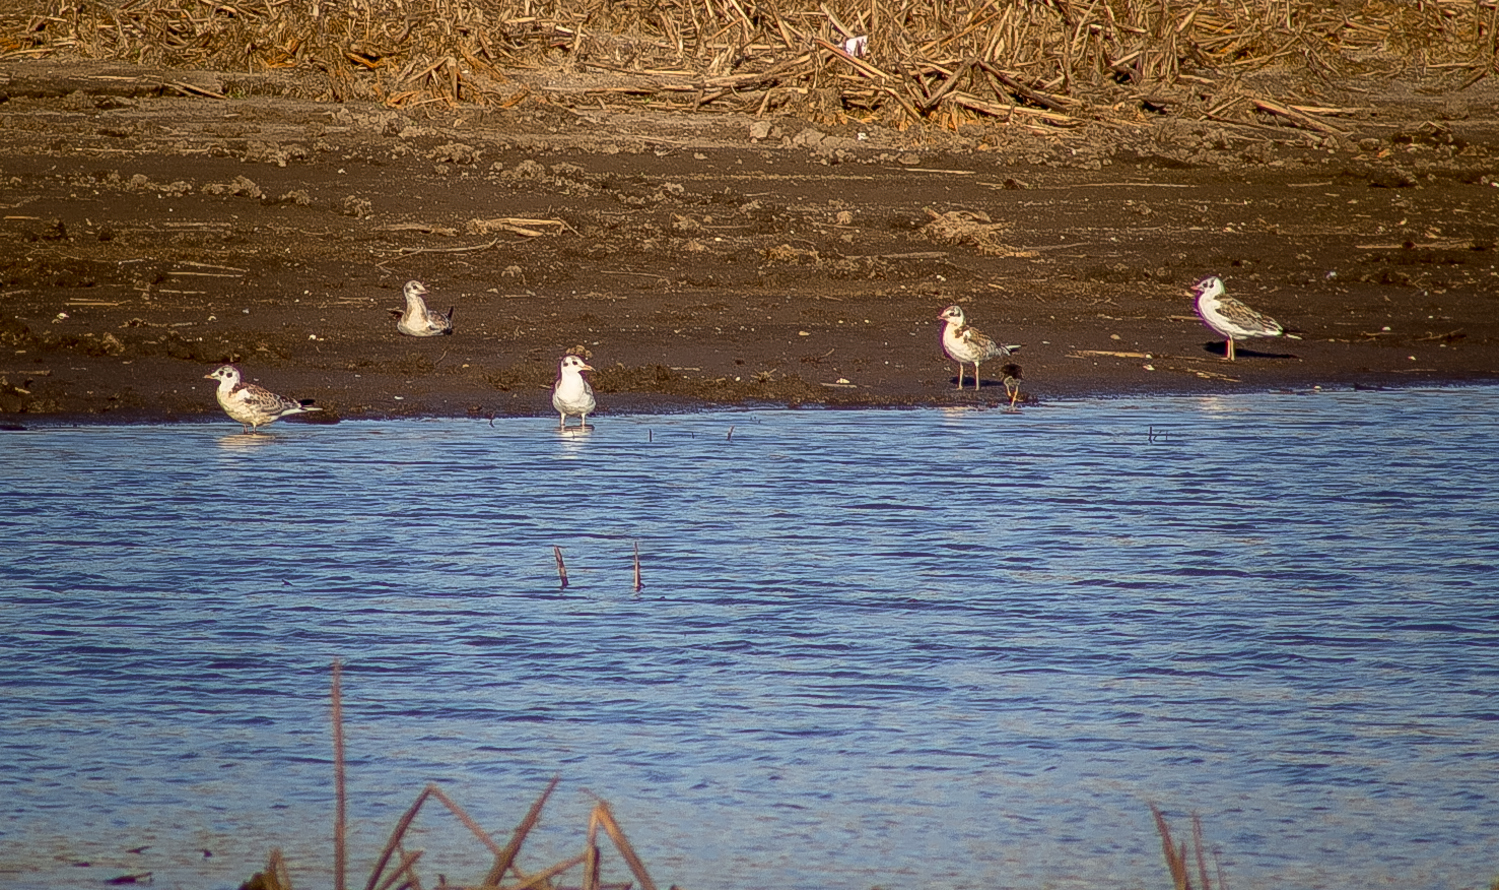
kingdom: Animalia
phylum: Chordata
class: Aves
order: Charadriiformes
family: Laridae
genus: Chroicocephalus
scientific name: Chroicocephalus ridibundus
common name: Black-headed gull
